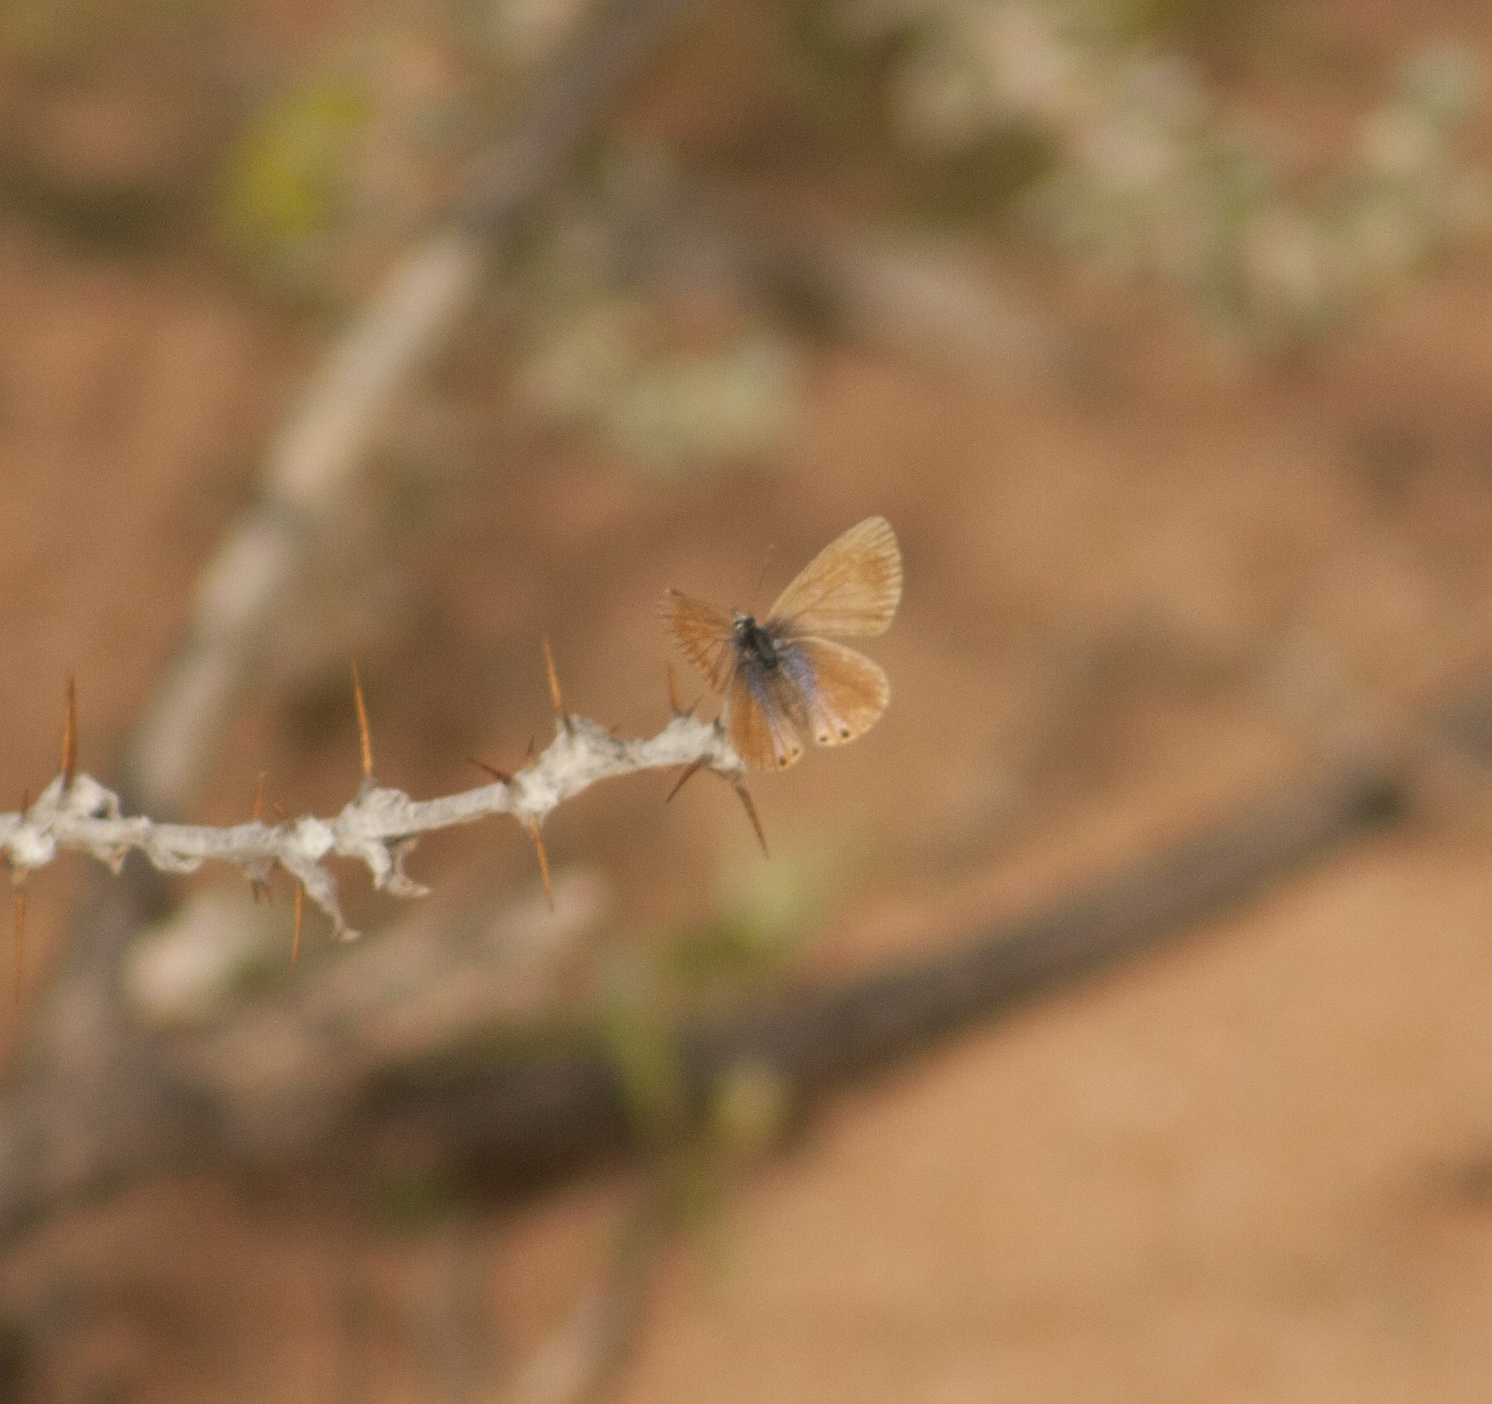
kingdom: Animalia
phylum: Arthropoda
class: Insecta
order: Lepidoptera
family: Lycaenidae
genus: Nacaduba
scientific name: Nacaduba biocellata
